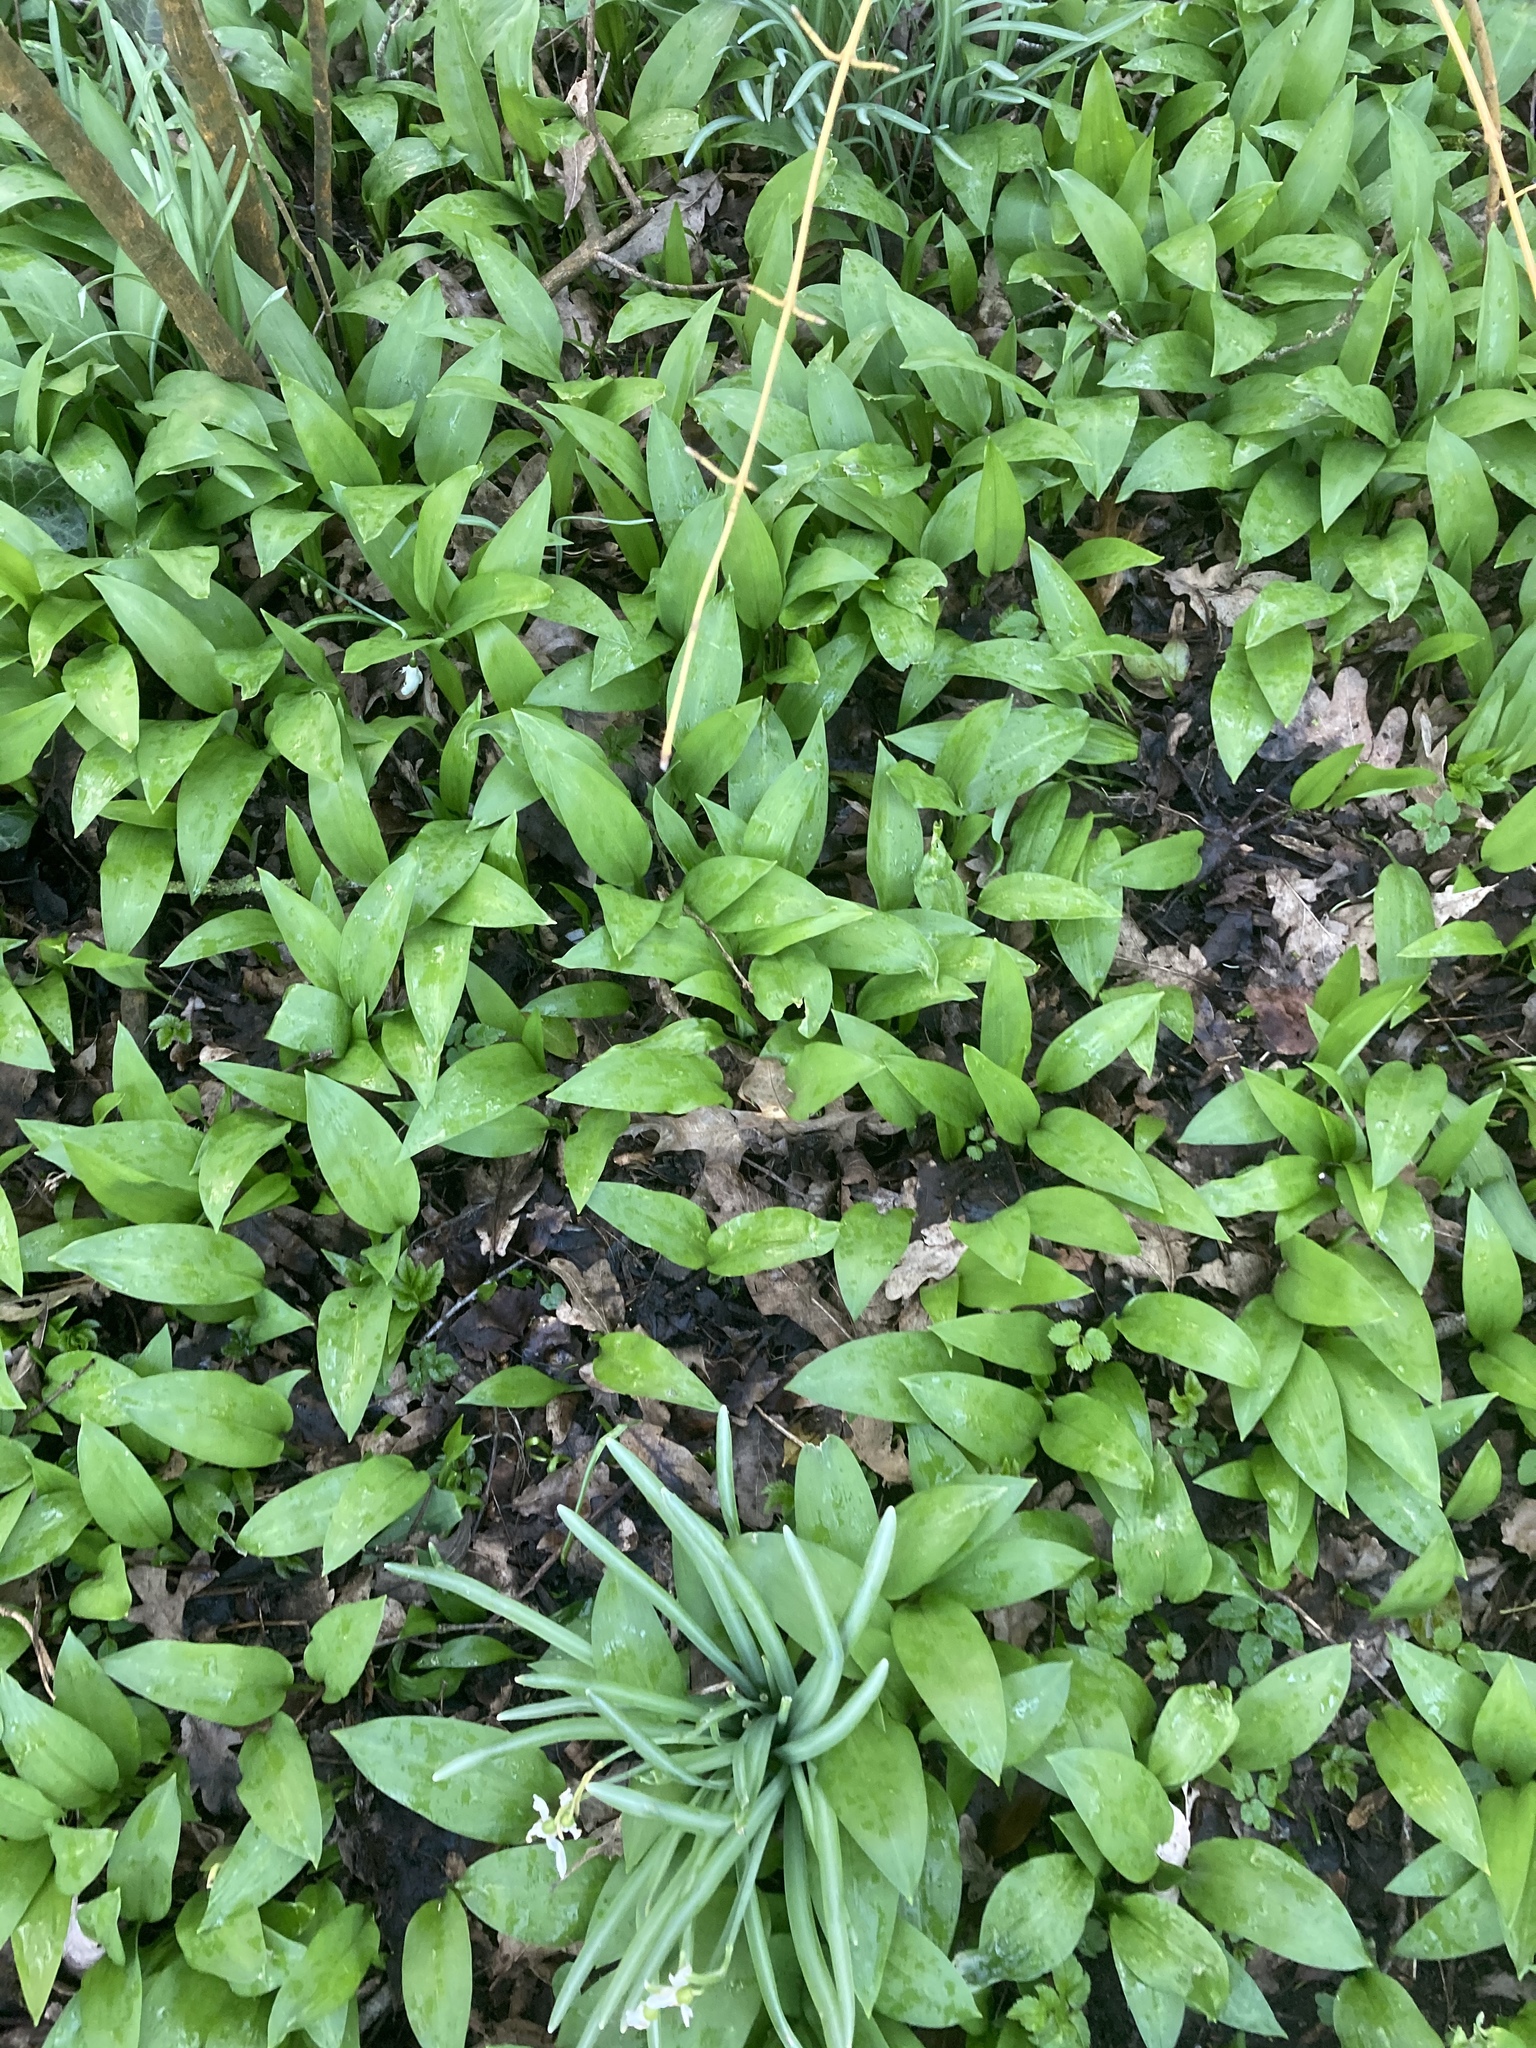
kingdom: Plantae
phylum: Tracheophyta
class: Liliopsida
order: Asparagales
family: Amaryllidaceae
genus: Allium
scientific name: Allium ursinum
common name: Ramsons
